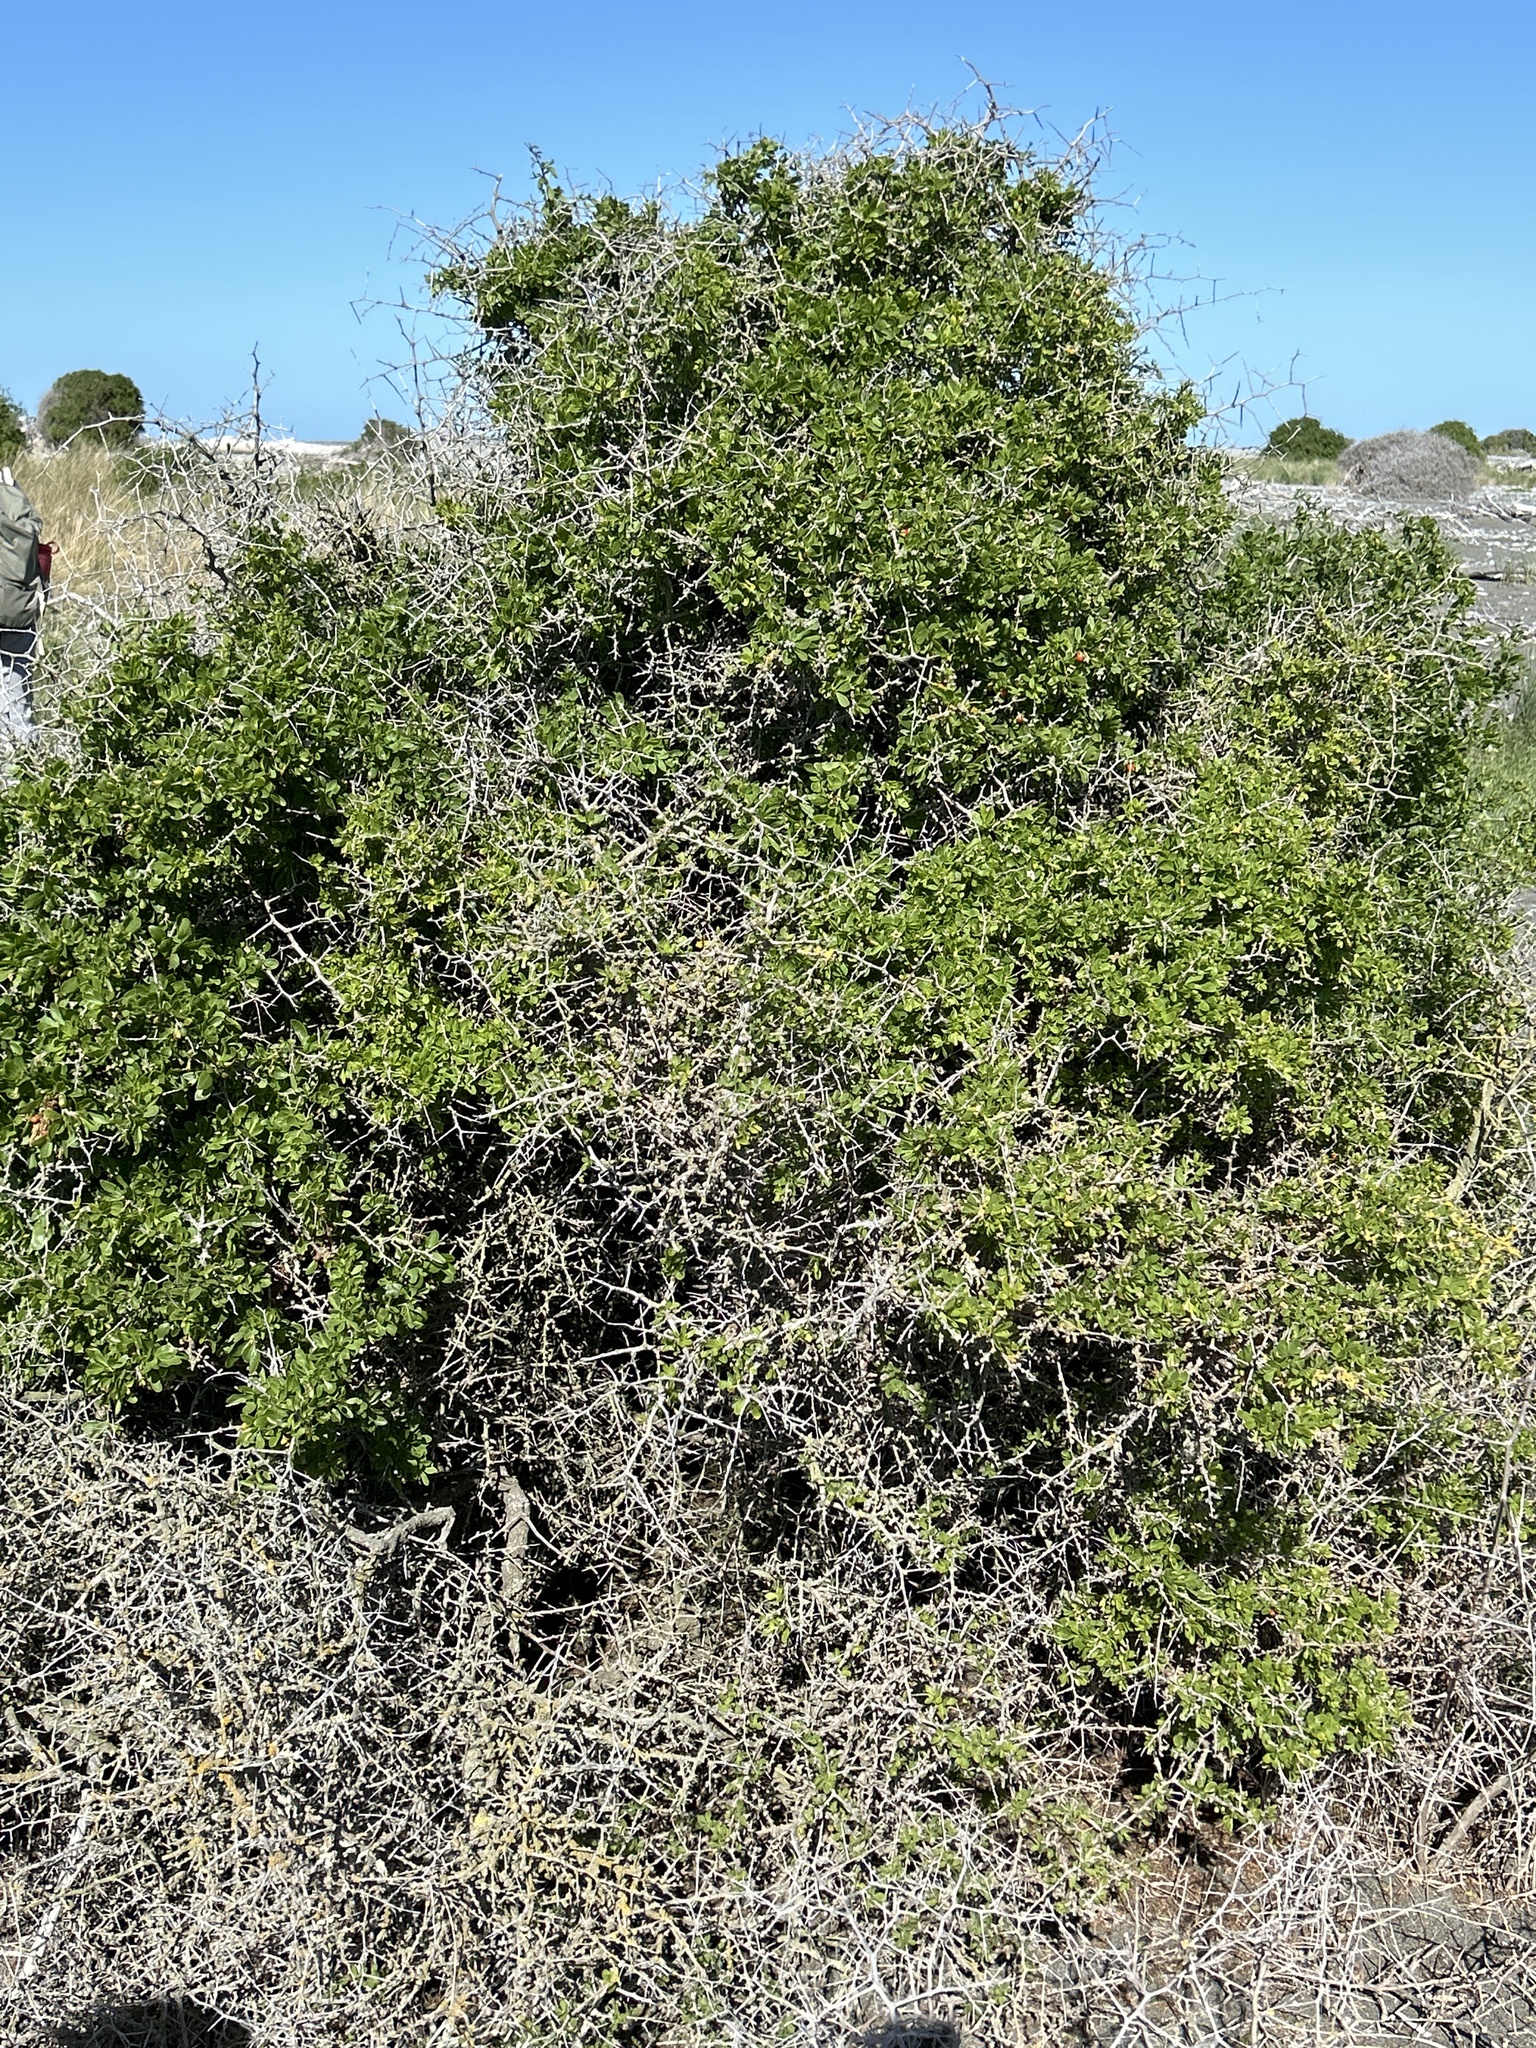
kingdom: Plantae
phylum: Tracheophyta
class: Magnoliopsida
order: Solanales
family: Solanaceae
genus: Lycium
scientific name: Lycium ferocissimum
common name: African boxthorn
